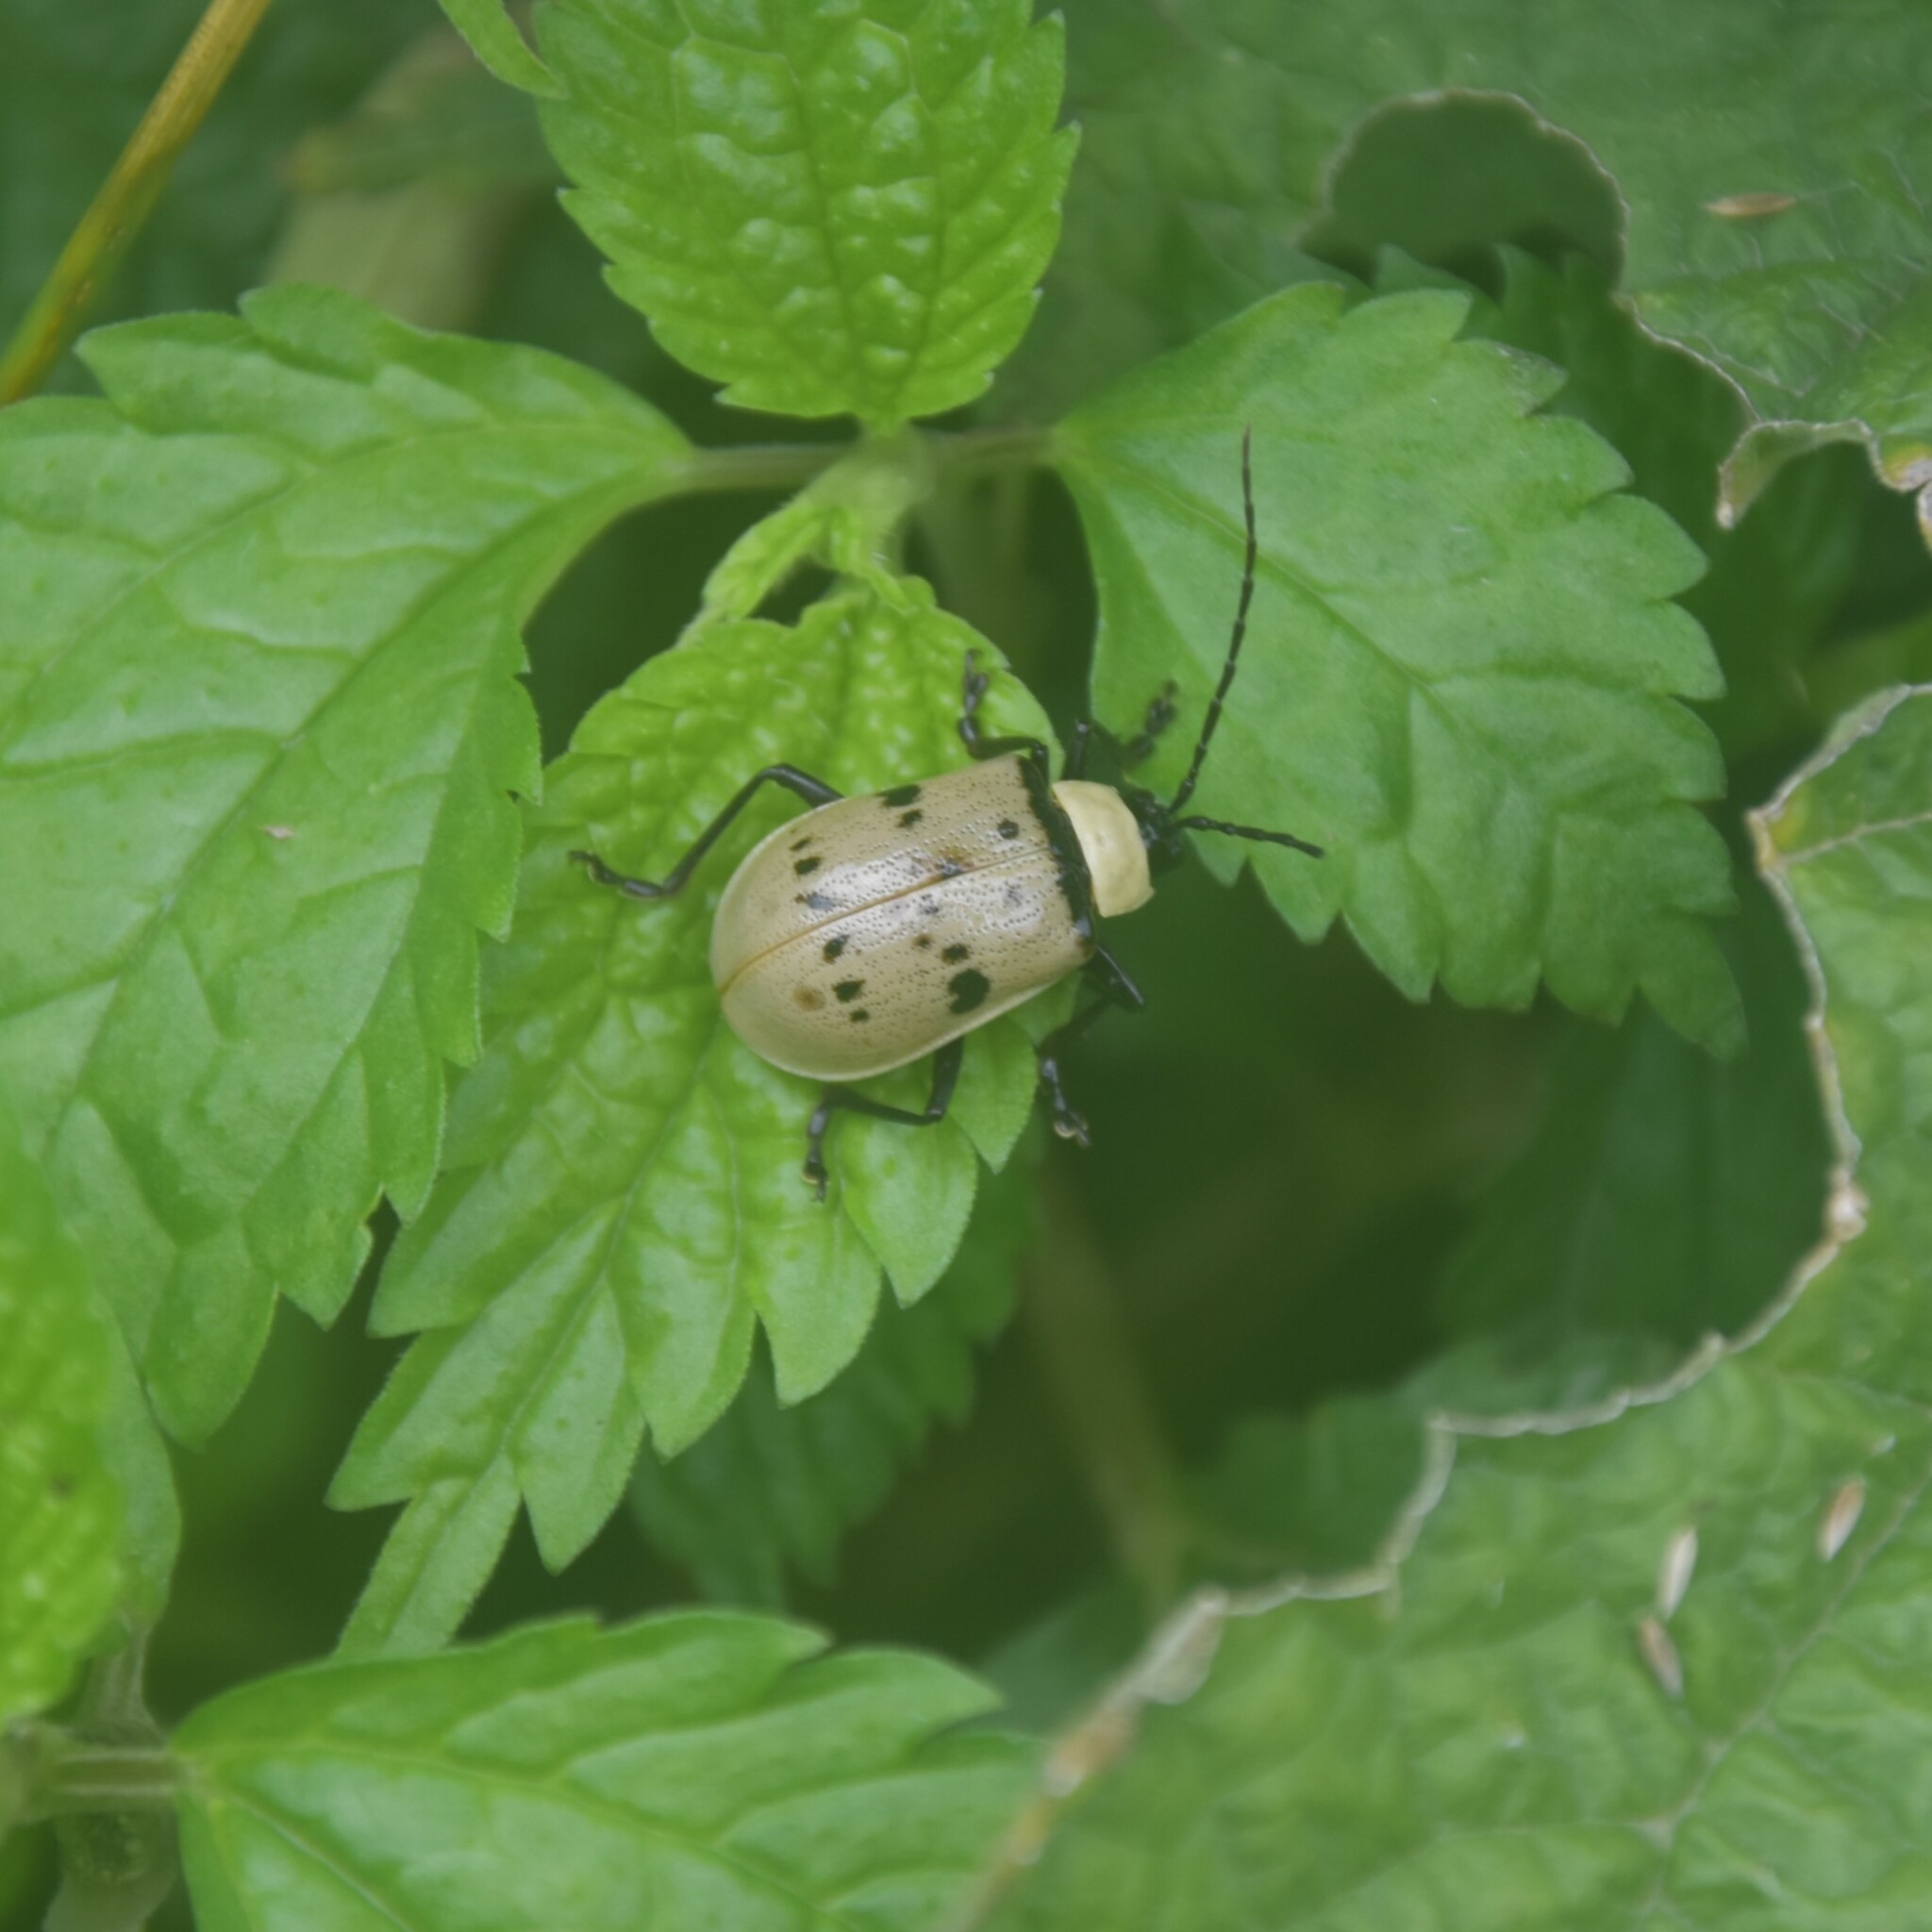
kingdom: Animalia
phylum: Arthropoda
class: Insecta
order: Coleoptera
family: Chrysomelidae
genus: Meristata
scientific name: Meristata
